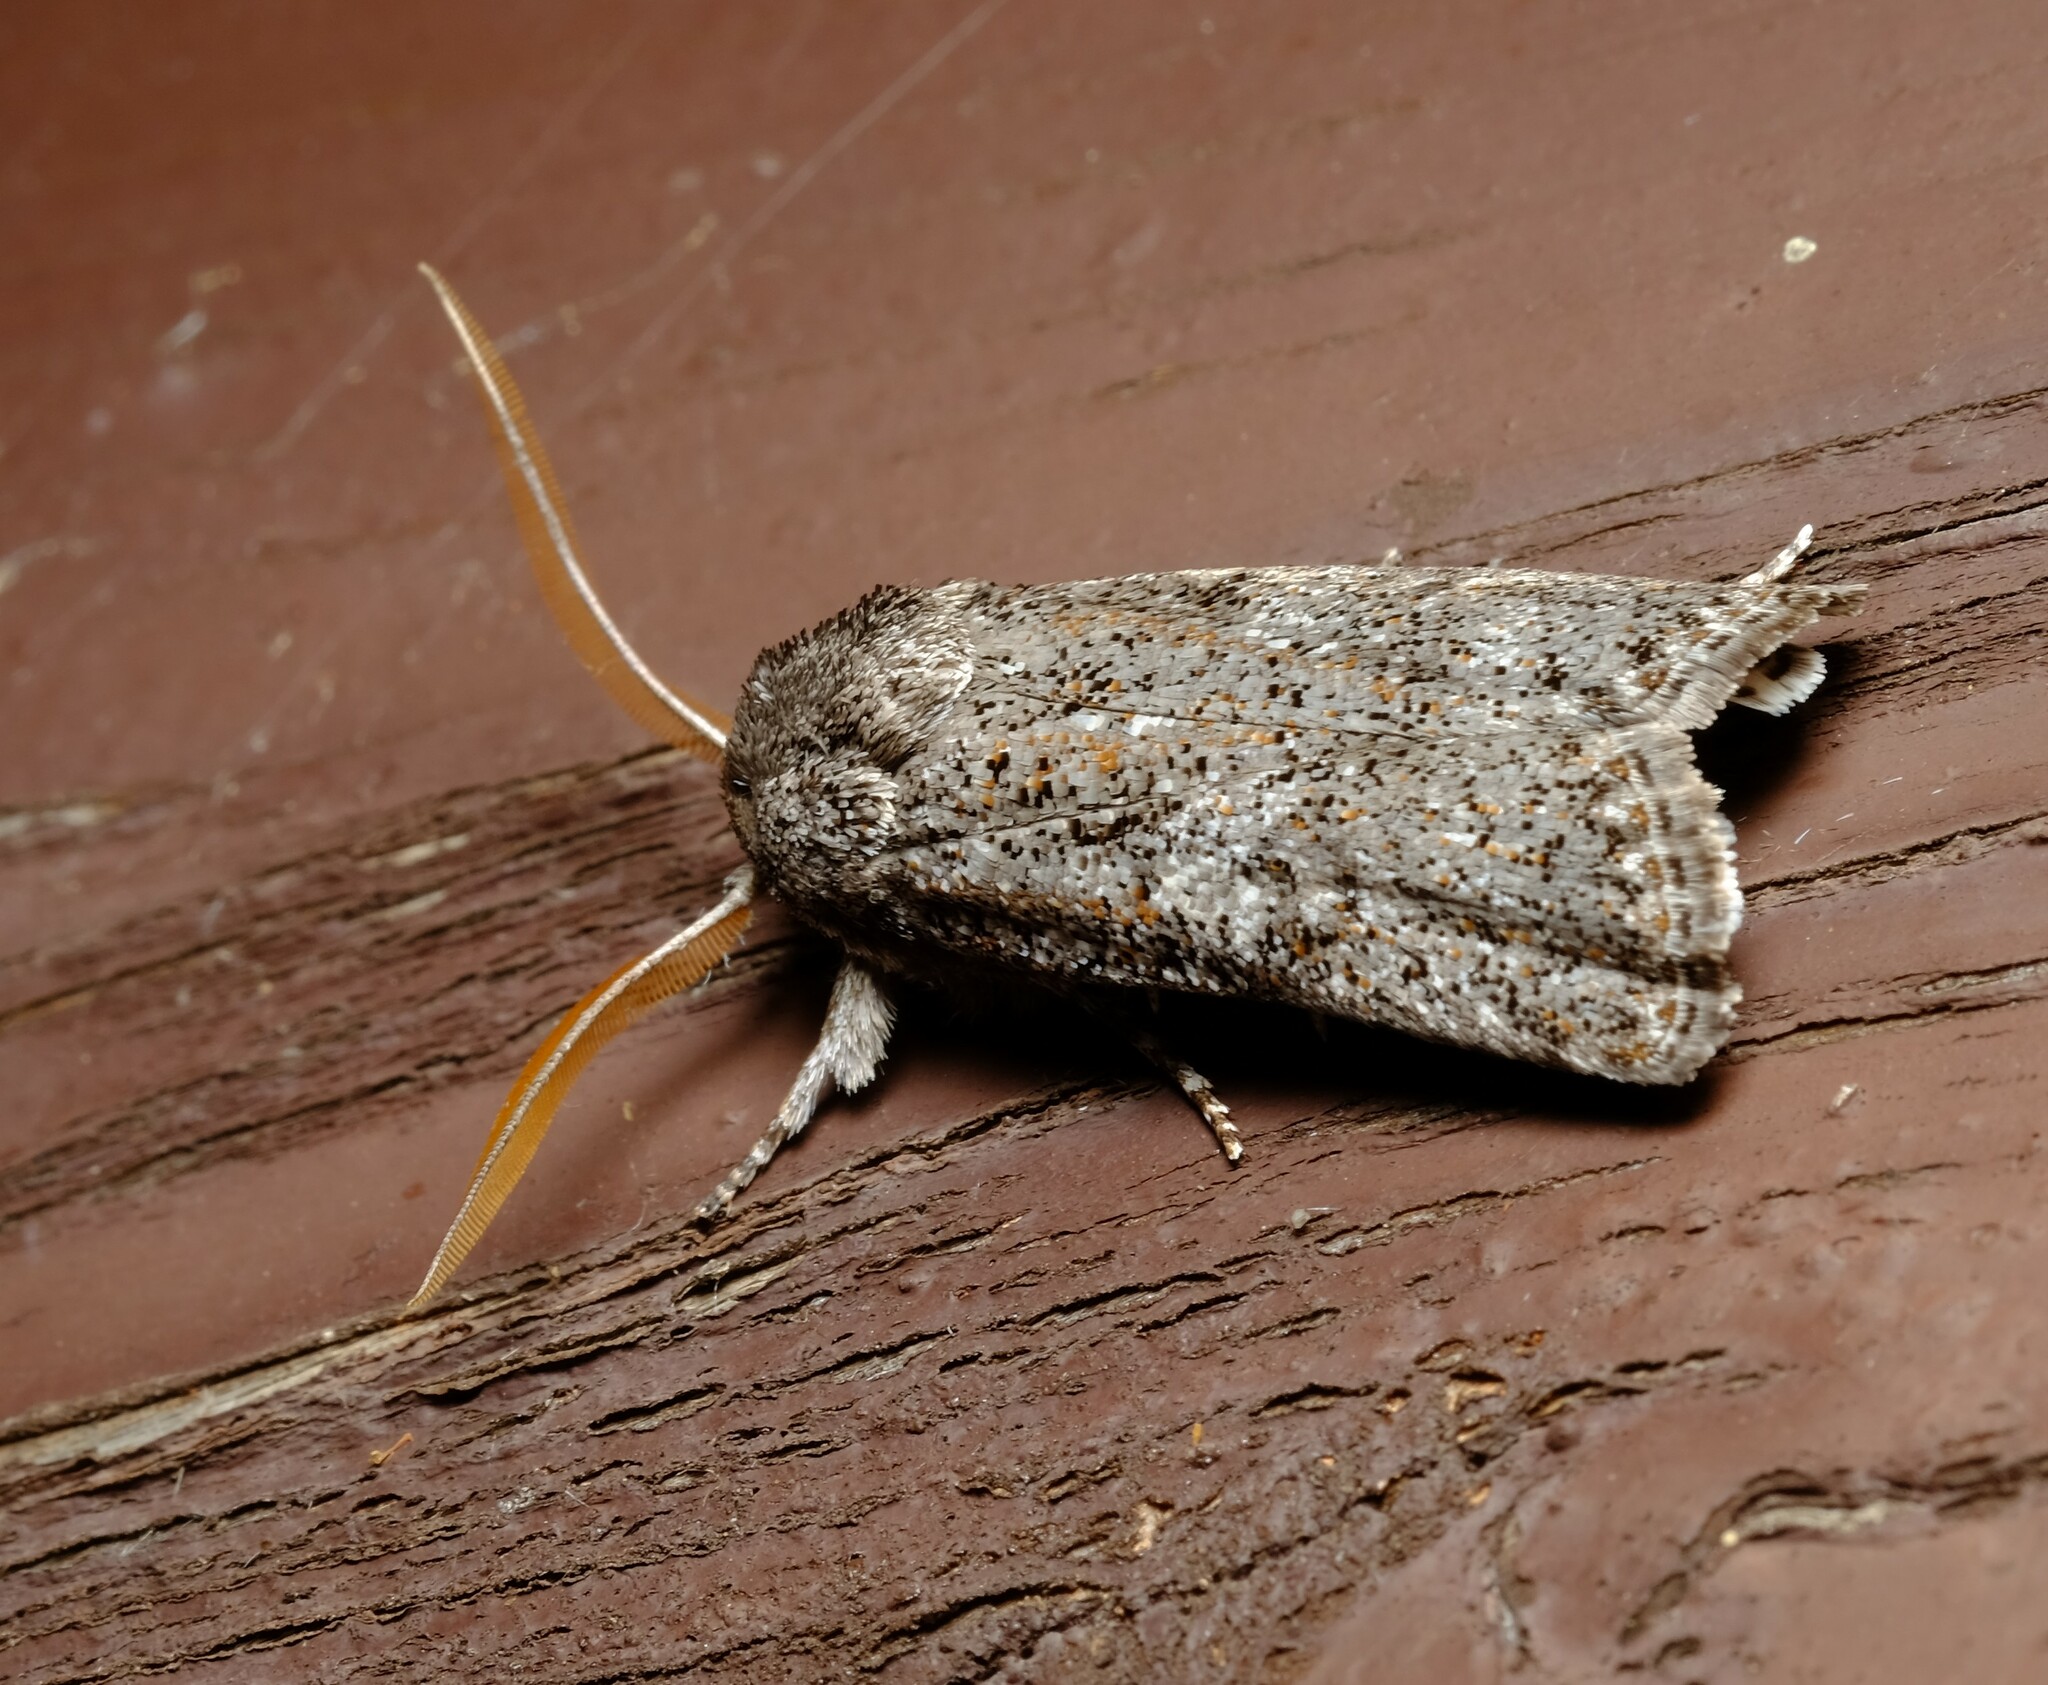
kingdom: Animalia
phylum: Arthropoda
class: Insecta
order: Lepidoptera
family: Xyloryctidae
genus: Cryptophasa
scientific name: Cryptophasa irrorata
